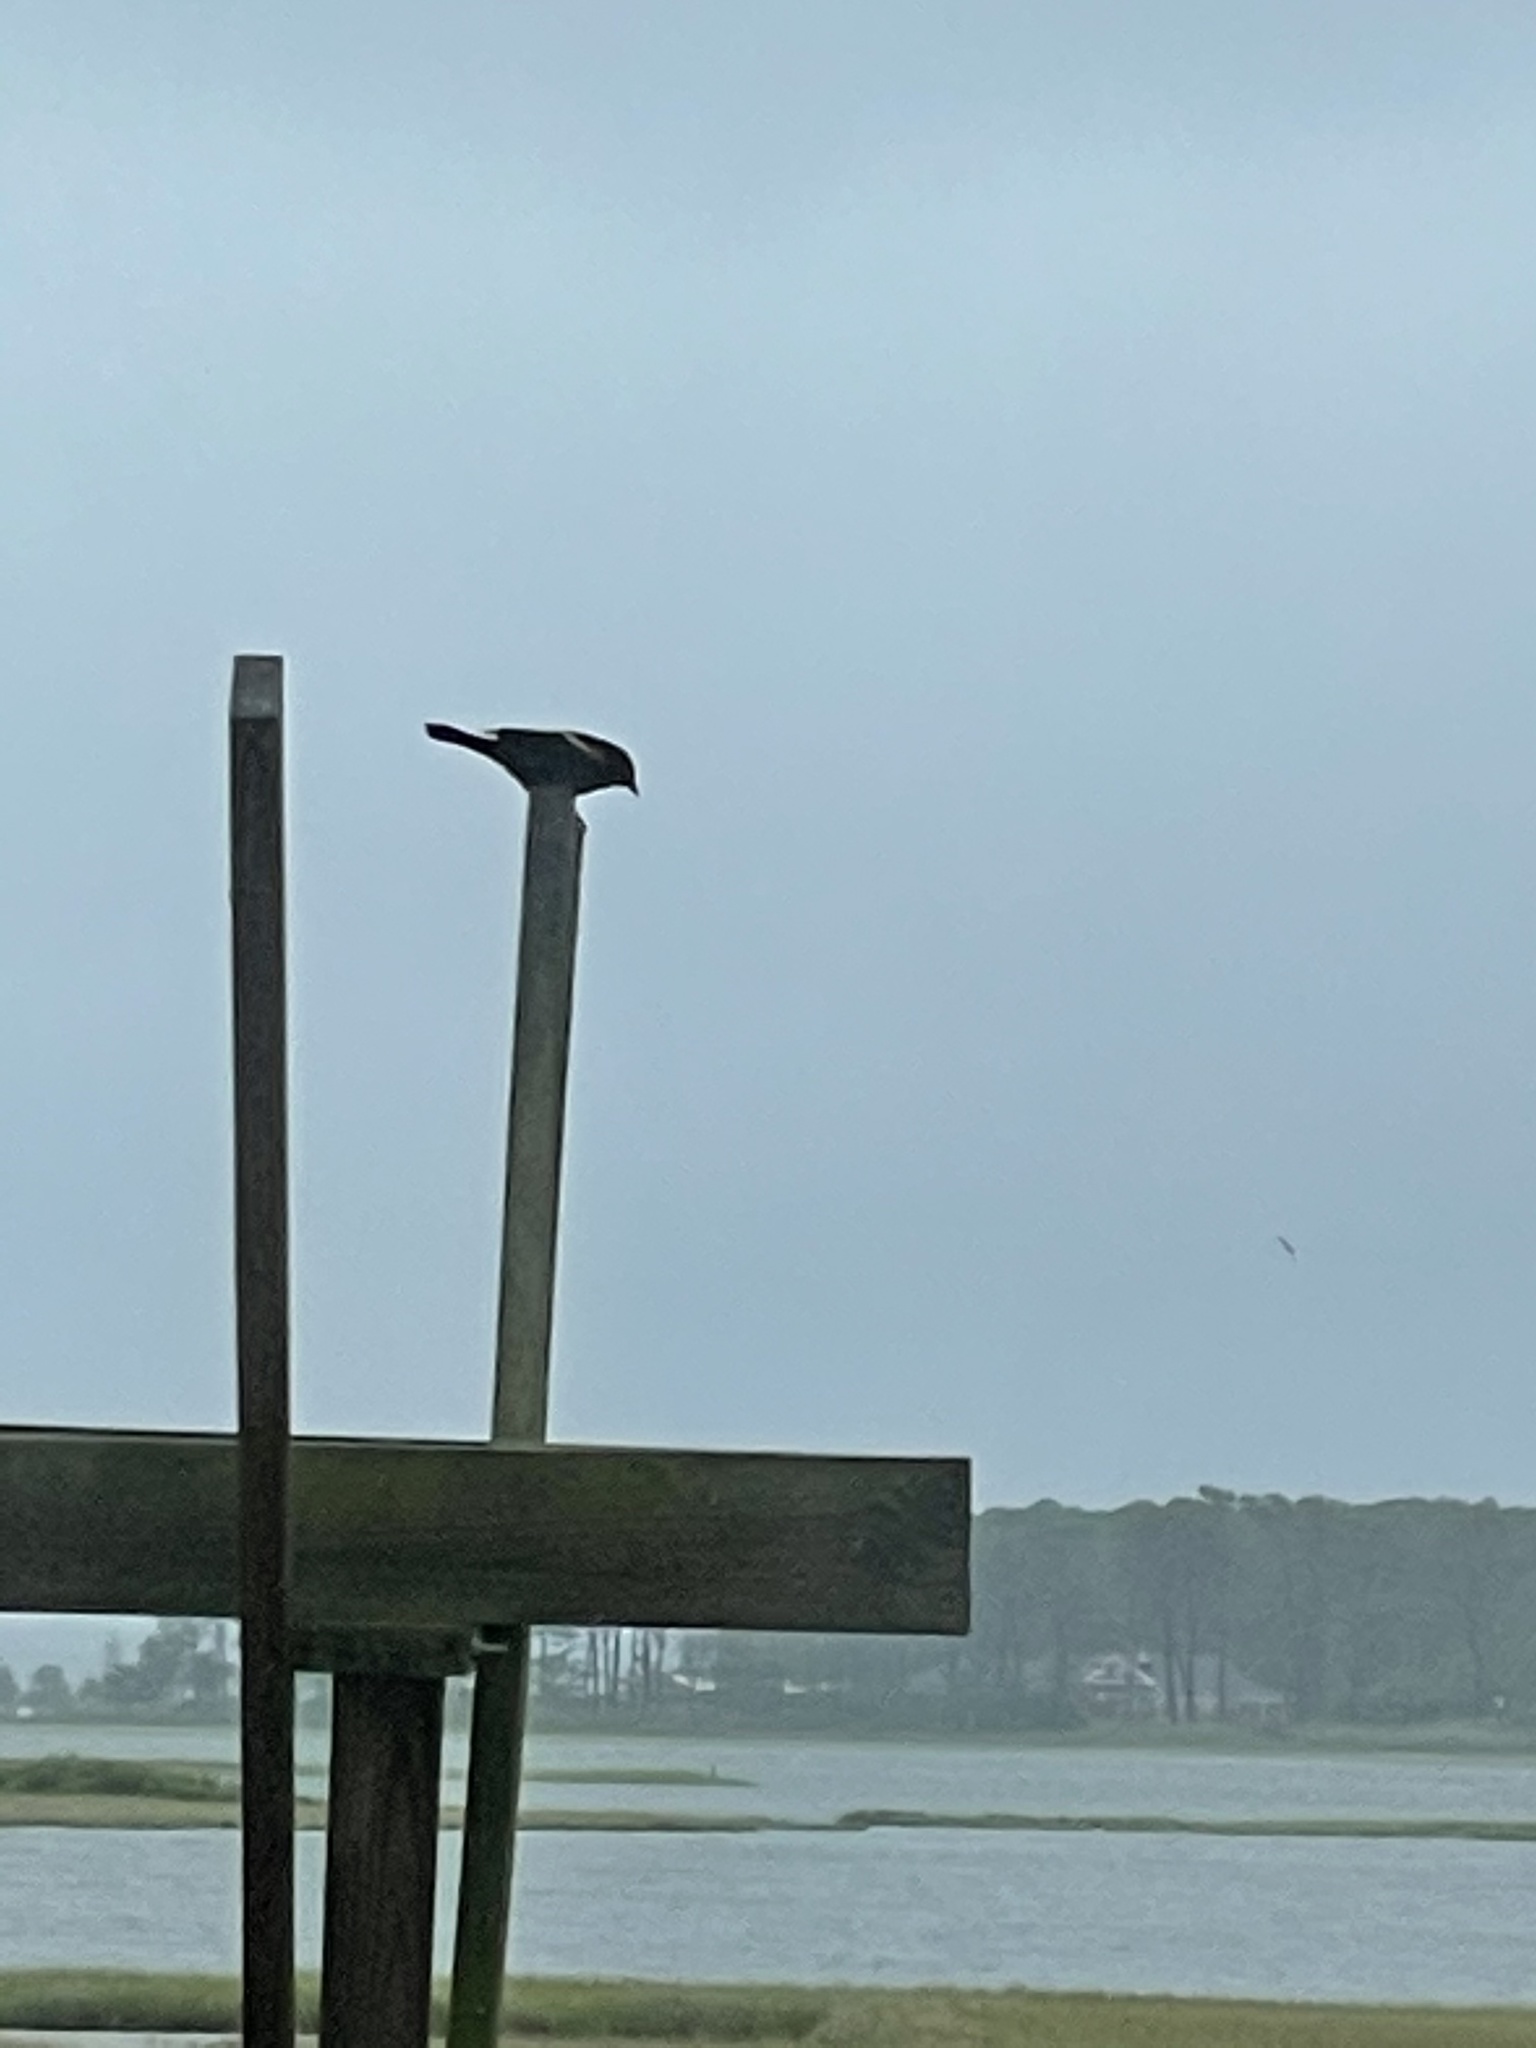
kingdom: Animalia
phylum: Chordata
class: Aves
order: Passeriformes
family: Icteridae
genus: Agelaius
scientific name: Agelaius phoeniceus
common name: Red-winged blackbird
